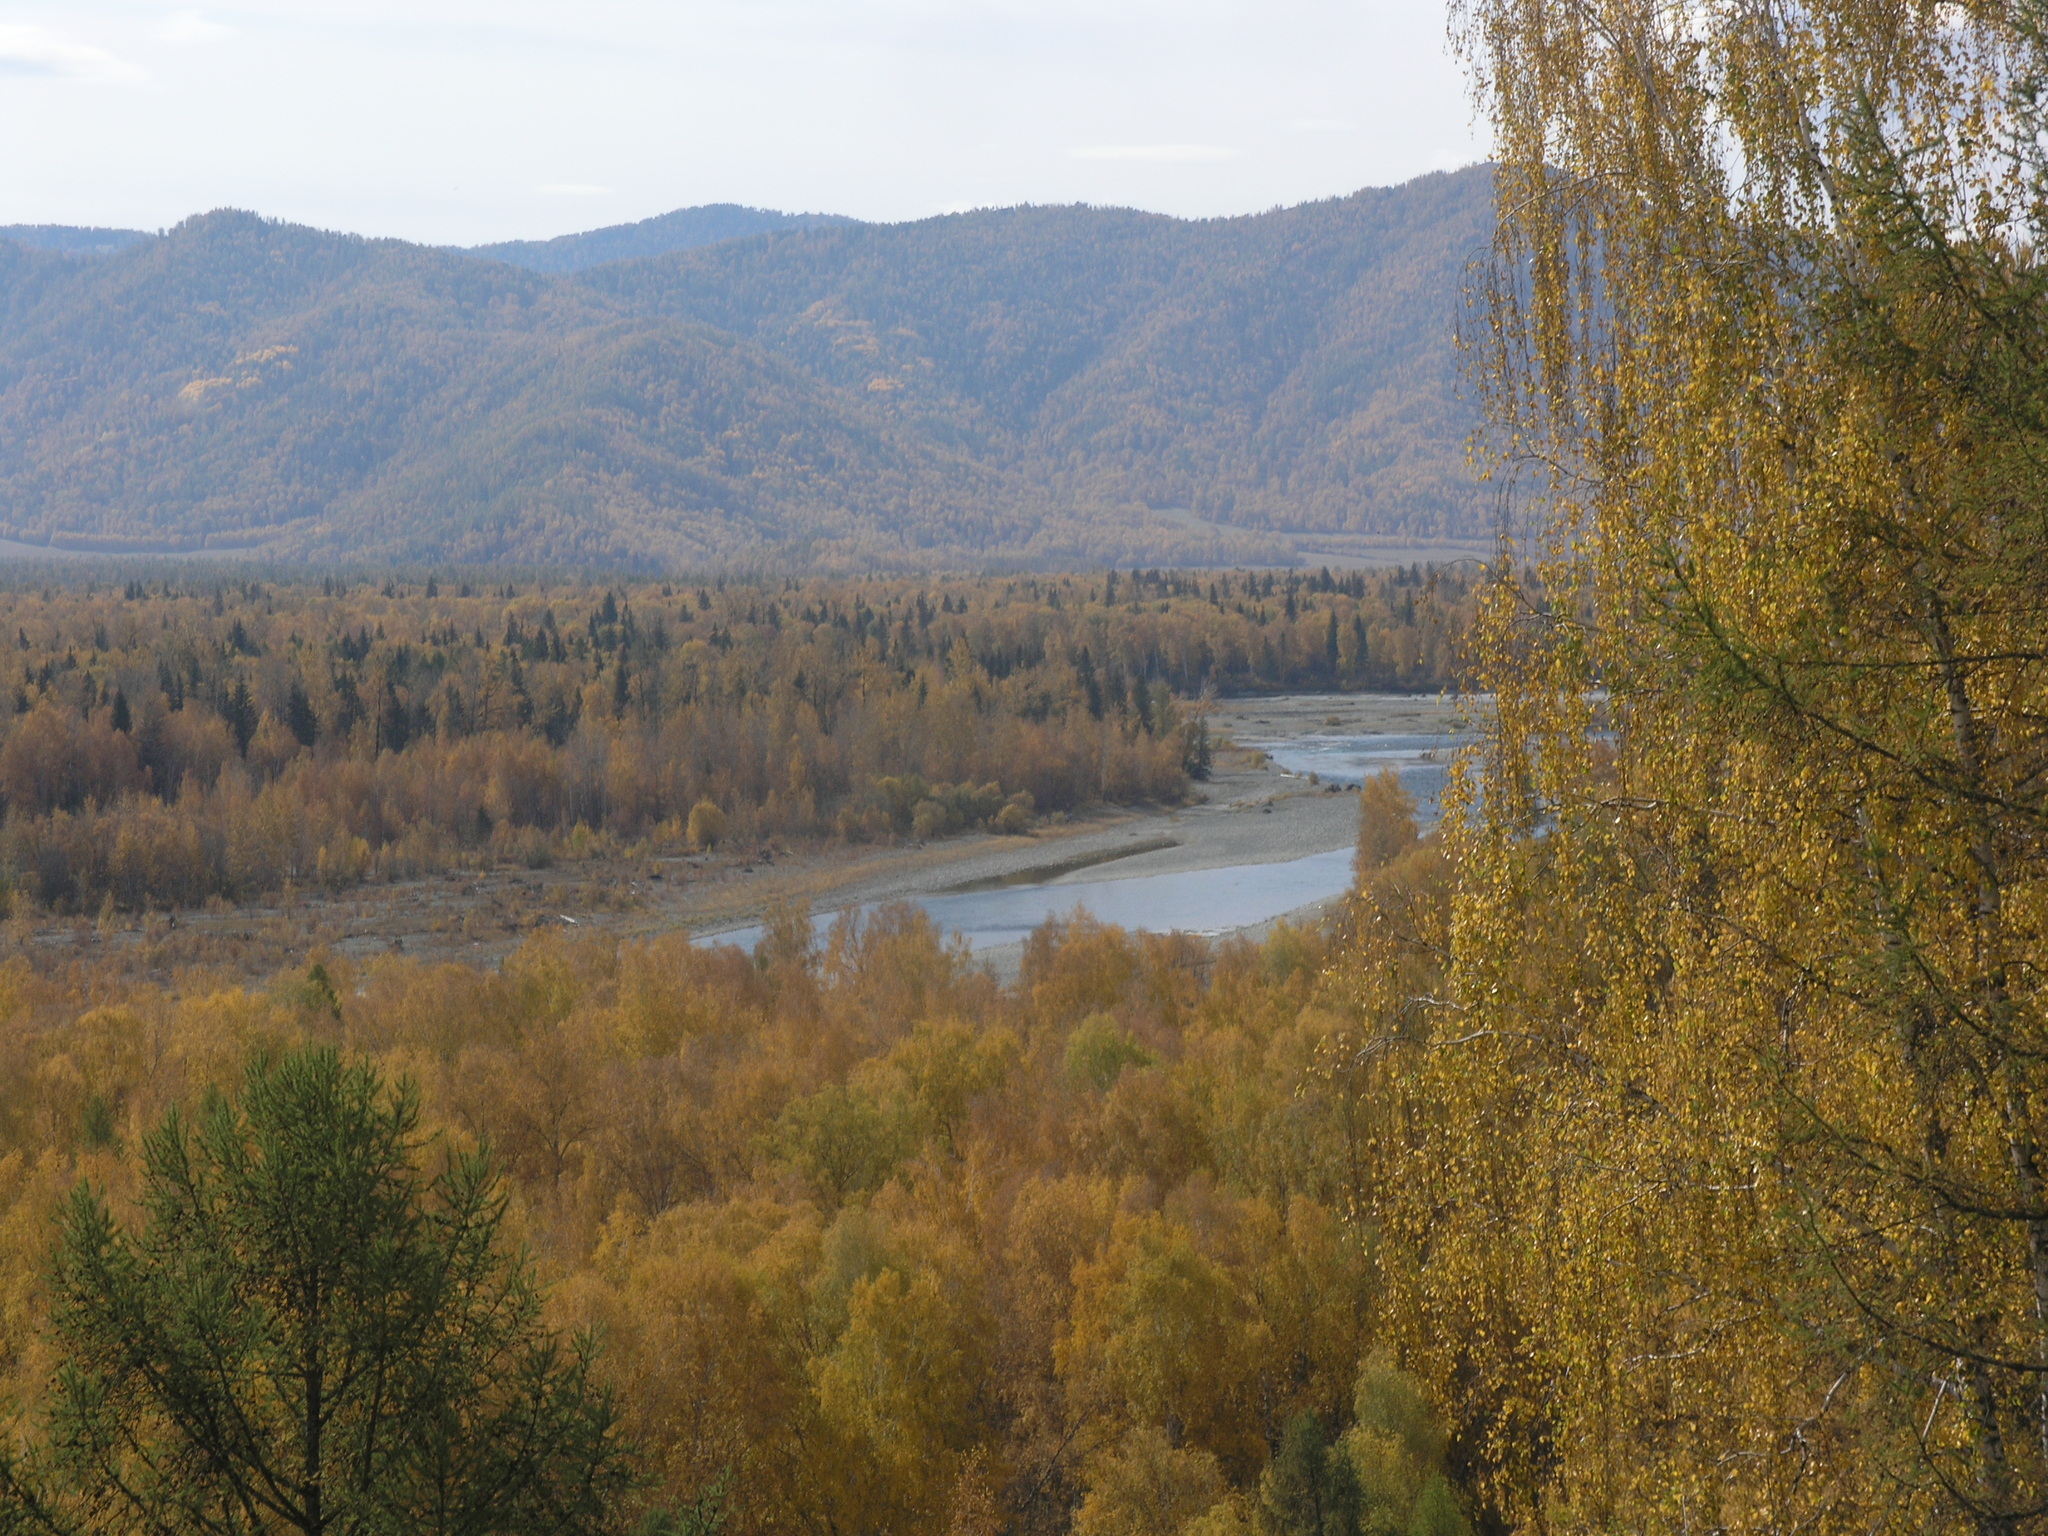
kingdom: Plantae
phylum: Tracheophyta
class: Magnoliopsida
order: Fagales
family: Betulaceae
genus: Betula
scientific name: Betula pendula
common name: Silver birch
